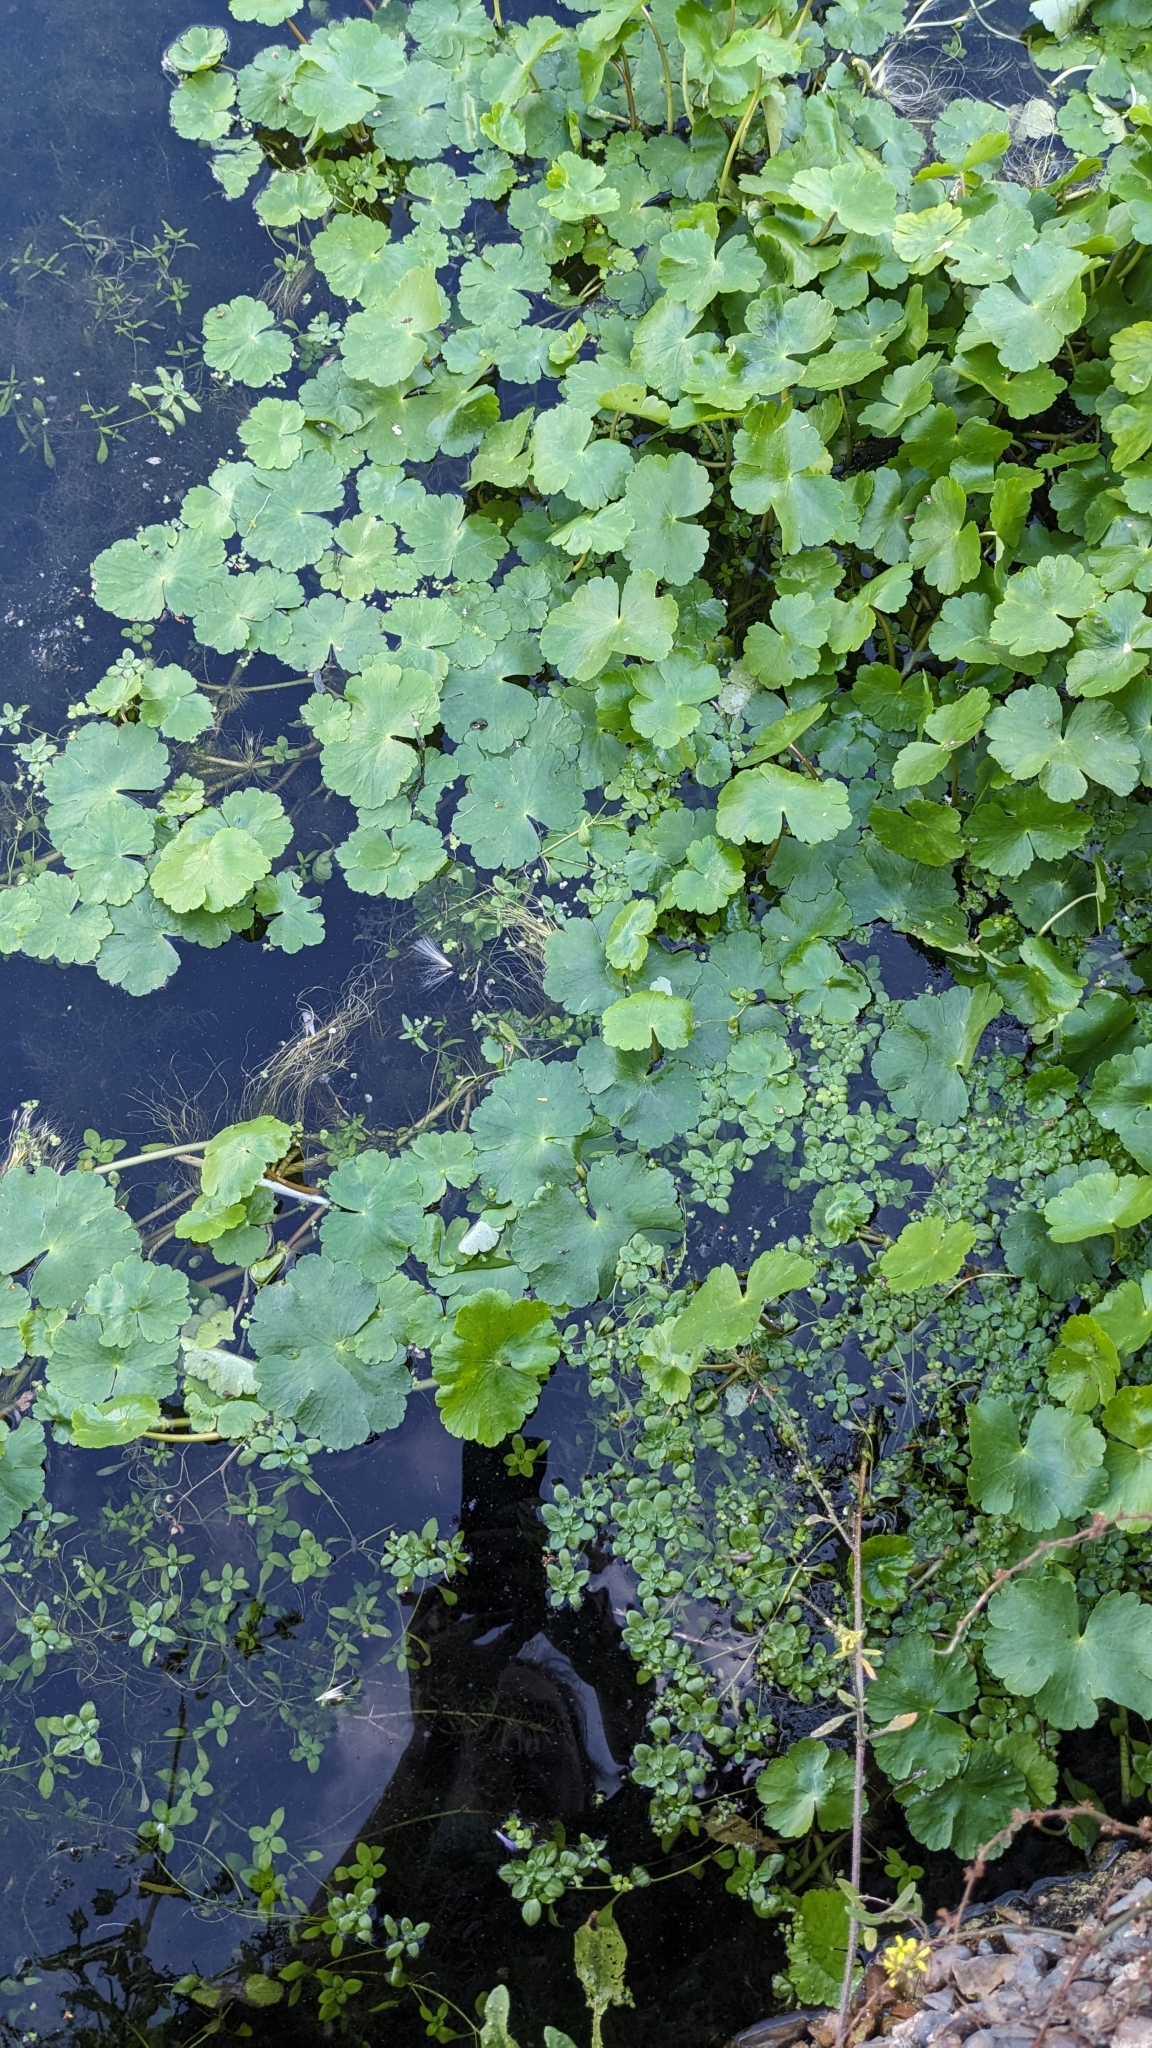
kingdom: Plantae
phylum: Tracheophyta
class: Magnoliopsida
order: Apiales
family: Araliaceae
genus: Hydrocotyle
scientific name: Hydrocotyle ranunculoides
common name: Floating pennywort
